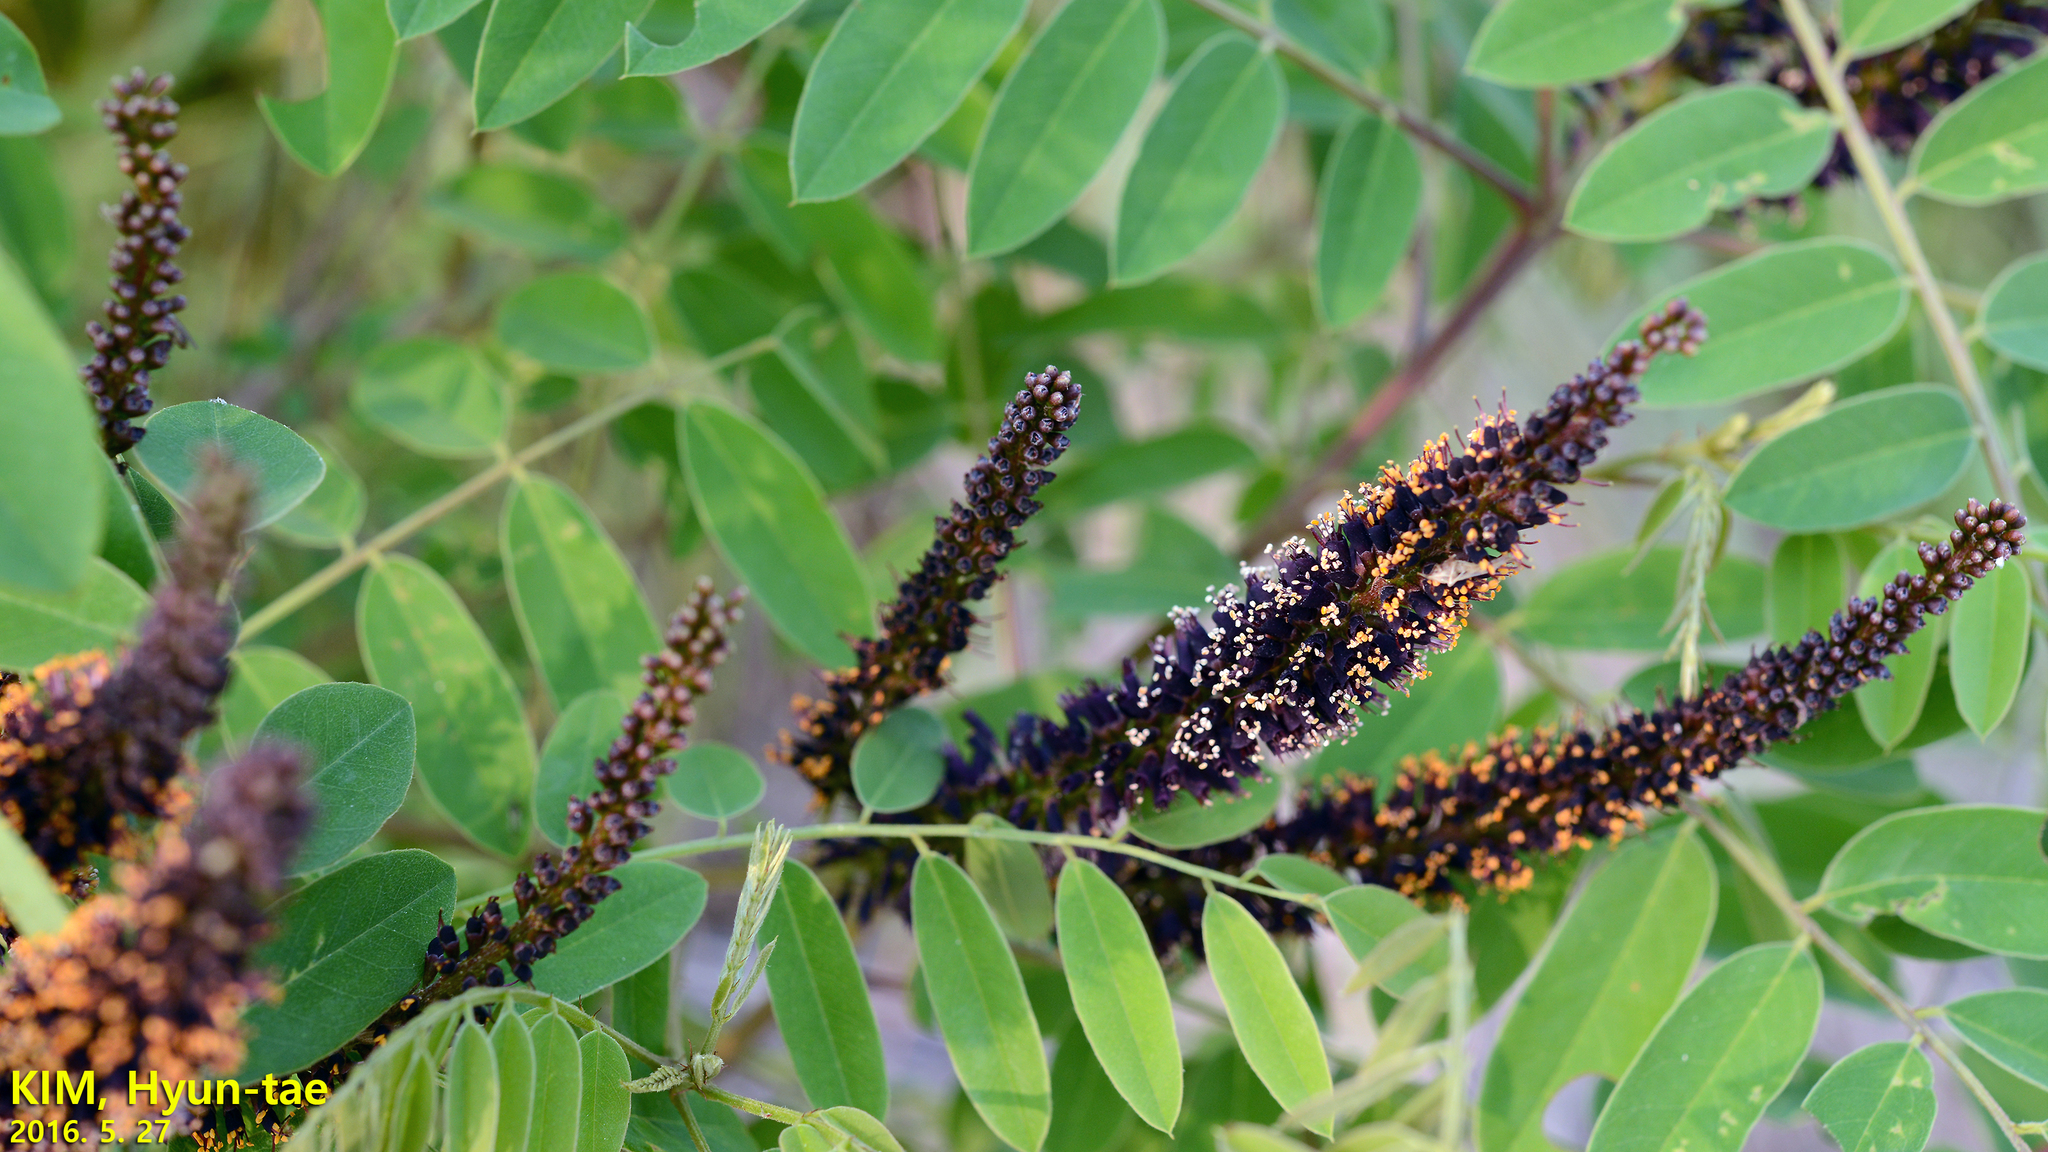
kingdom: Plantae
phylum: Tracheophyta
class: Magnoliopsida
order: Fabales
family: Fabaceae
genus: Amorpha
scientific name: Amorpha fruticosa
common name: False indigo
